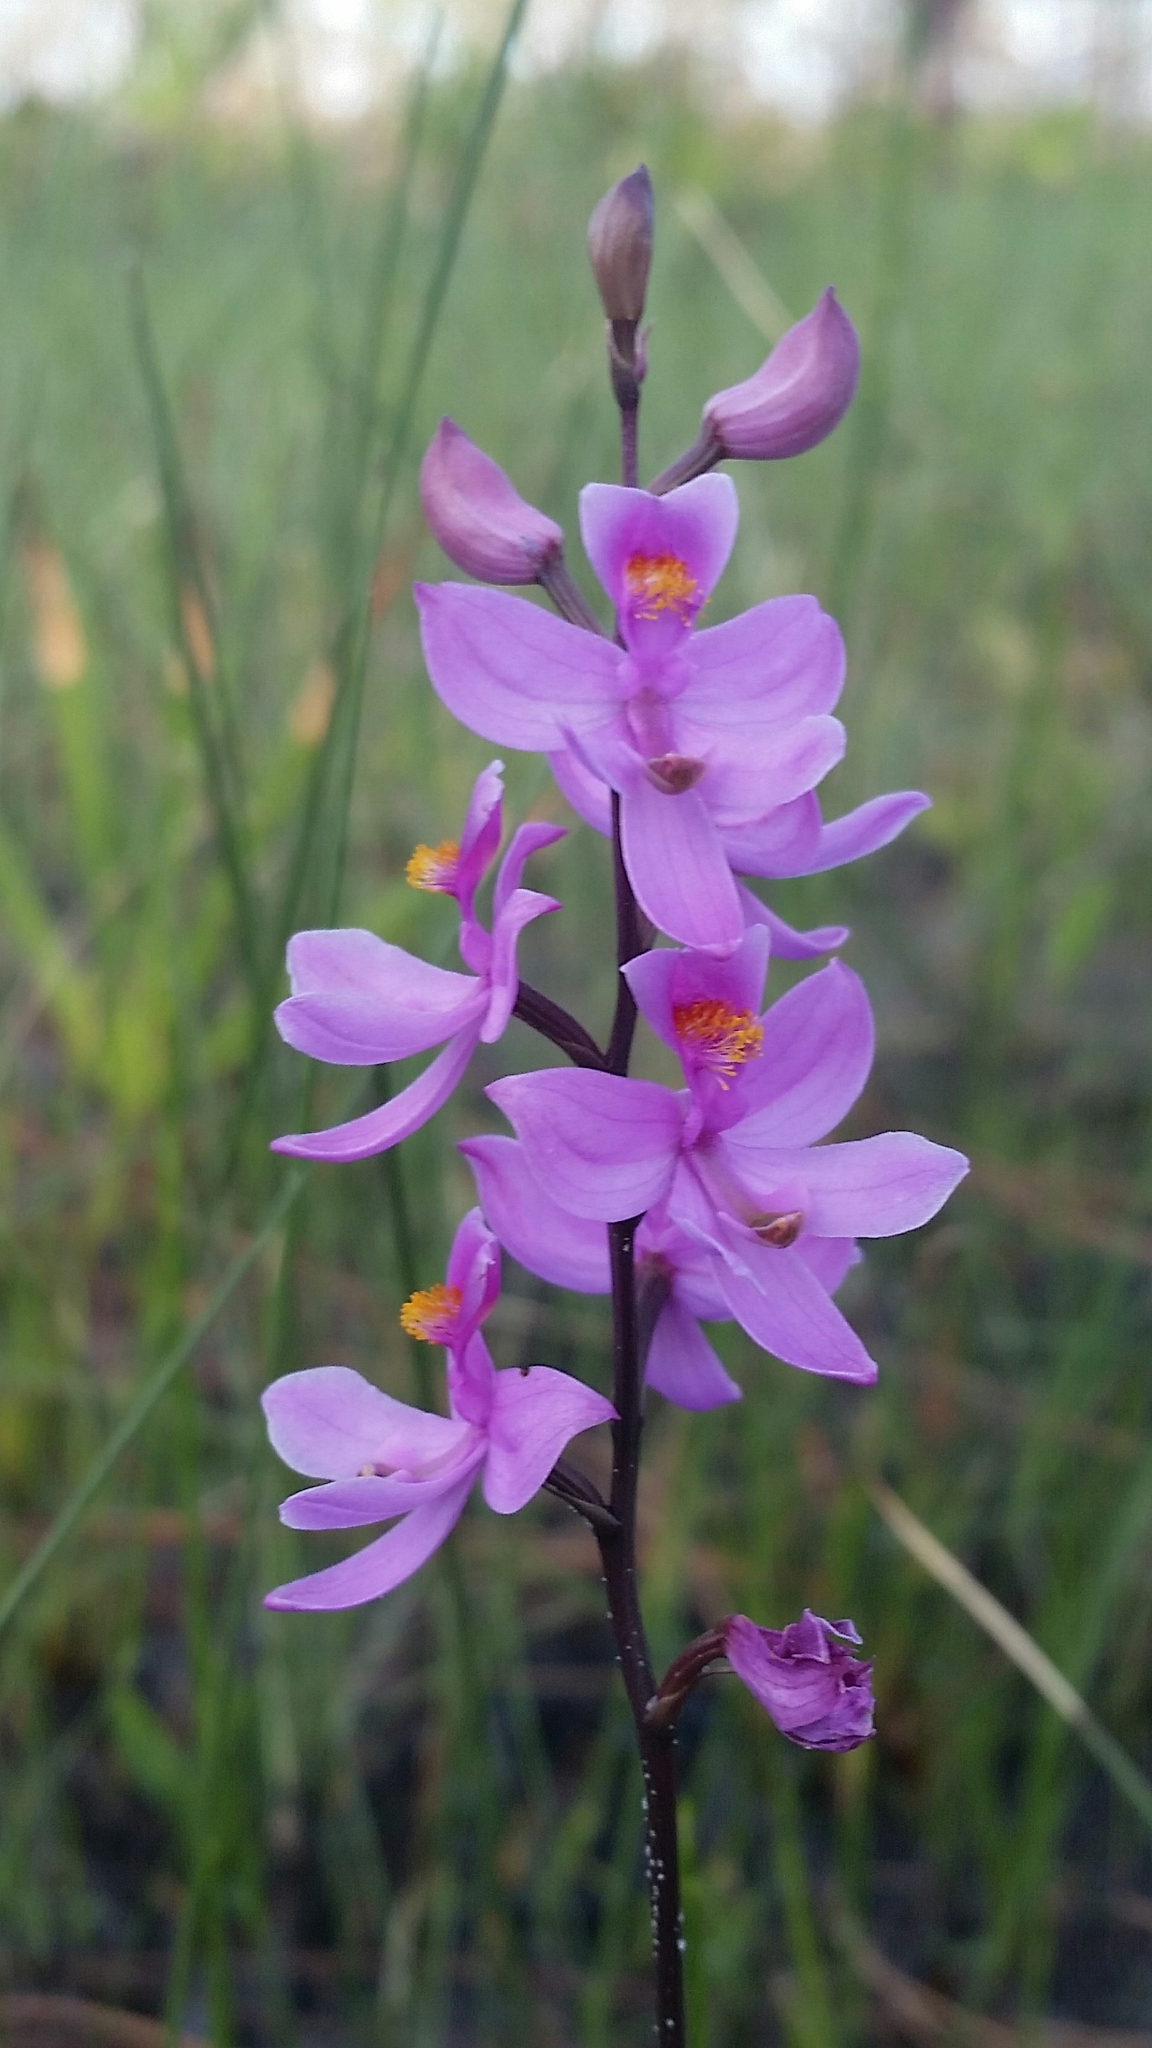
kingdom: Plantae
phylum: Tracheophyta
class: Liliopsida
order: Asparagales
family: Orchidaceae
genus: Calopogon
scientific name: Calopogon multiflorus
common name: Many-flowered grass-pink orchid
